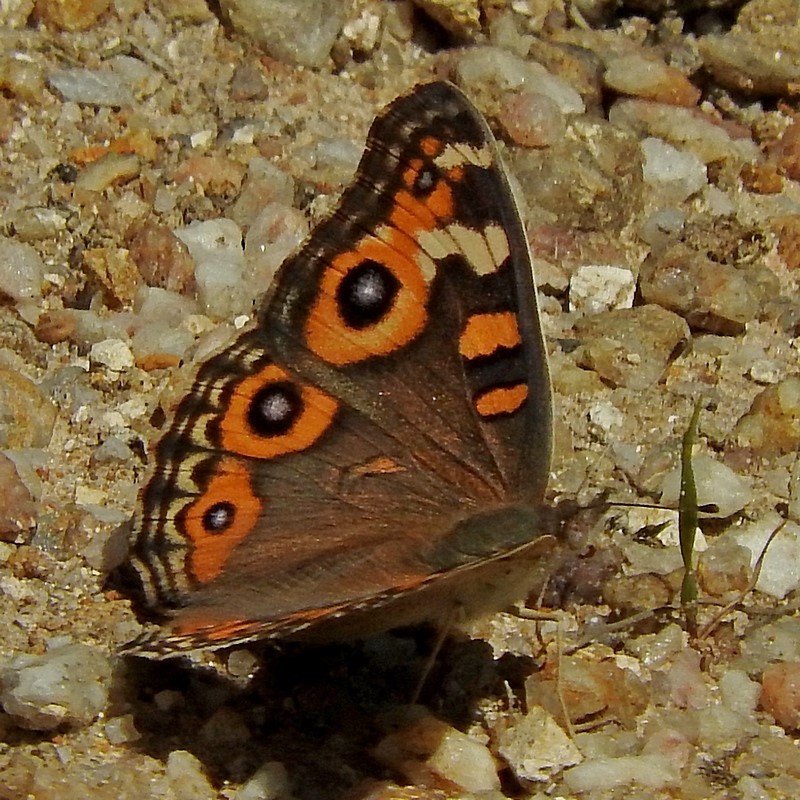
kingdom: Animalia
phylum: Arthropoda
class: Insecta
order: Lepidoptera
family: Nymphalidae
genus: Junonia
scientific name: Junonia villida
